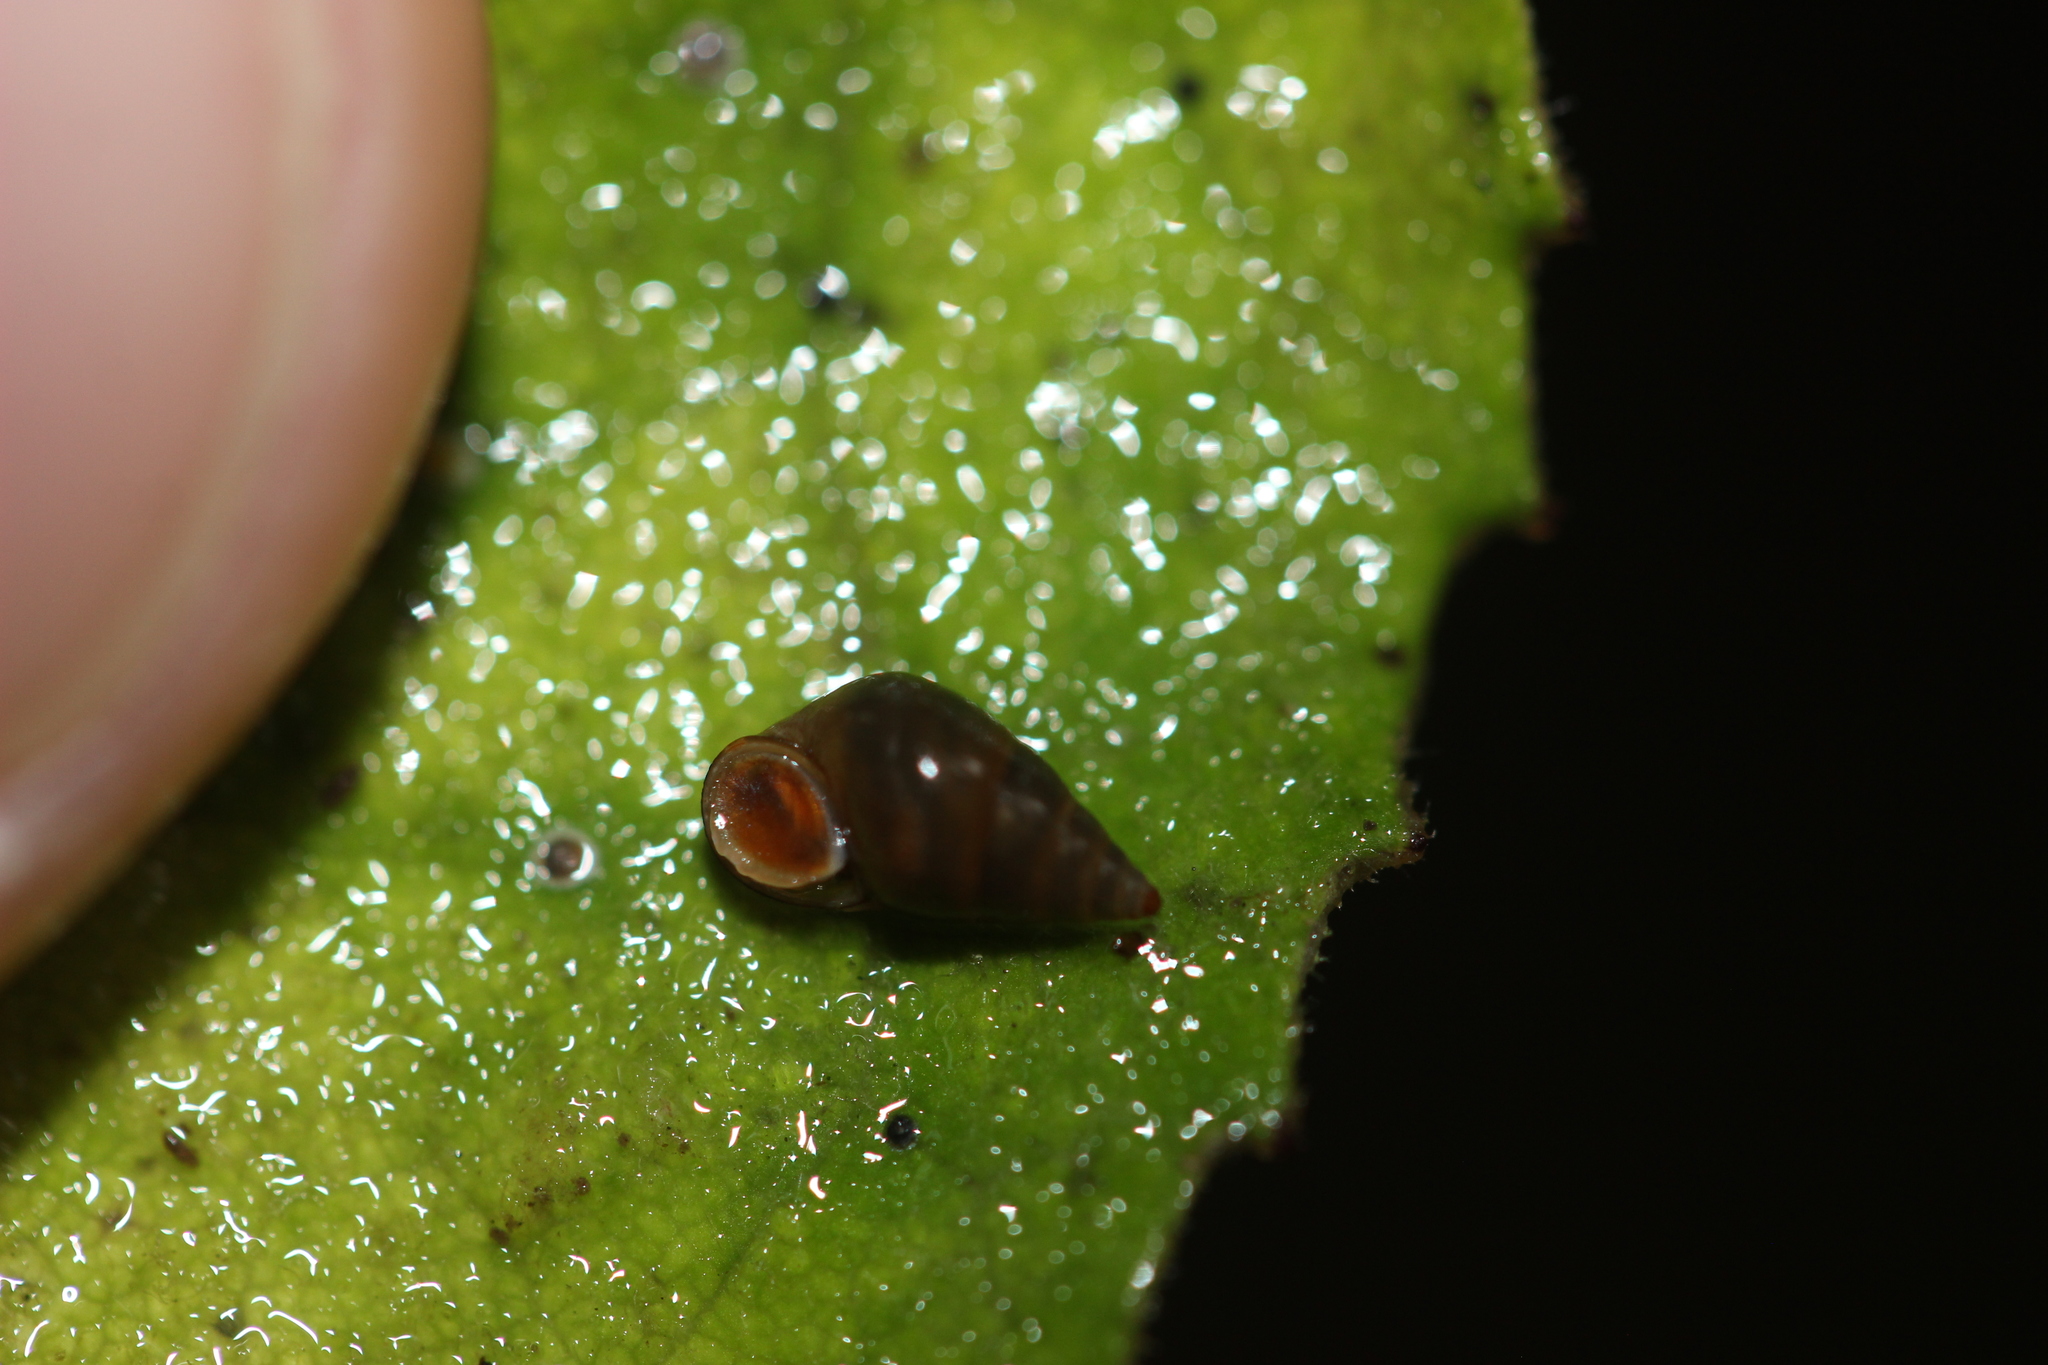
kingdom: Animalia
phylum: Mollusca
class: Gastropoda
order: Littorinimorpha
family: Tateidae
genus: Potamopyrgus
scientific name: Potamopyrgus antipodarum
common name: Jenkins' spire snail
